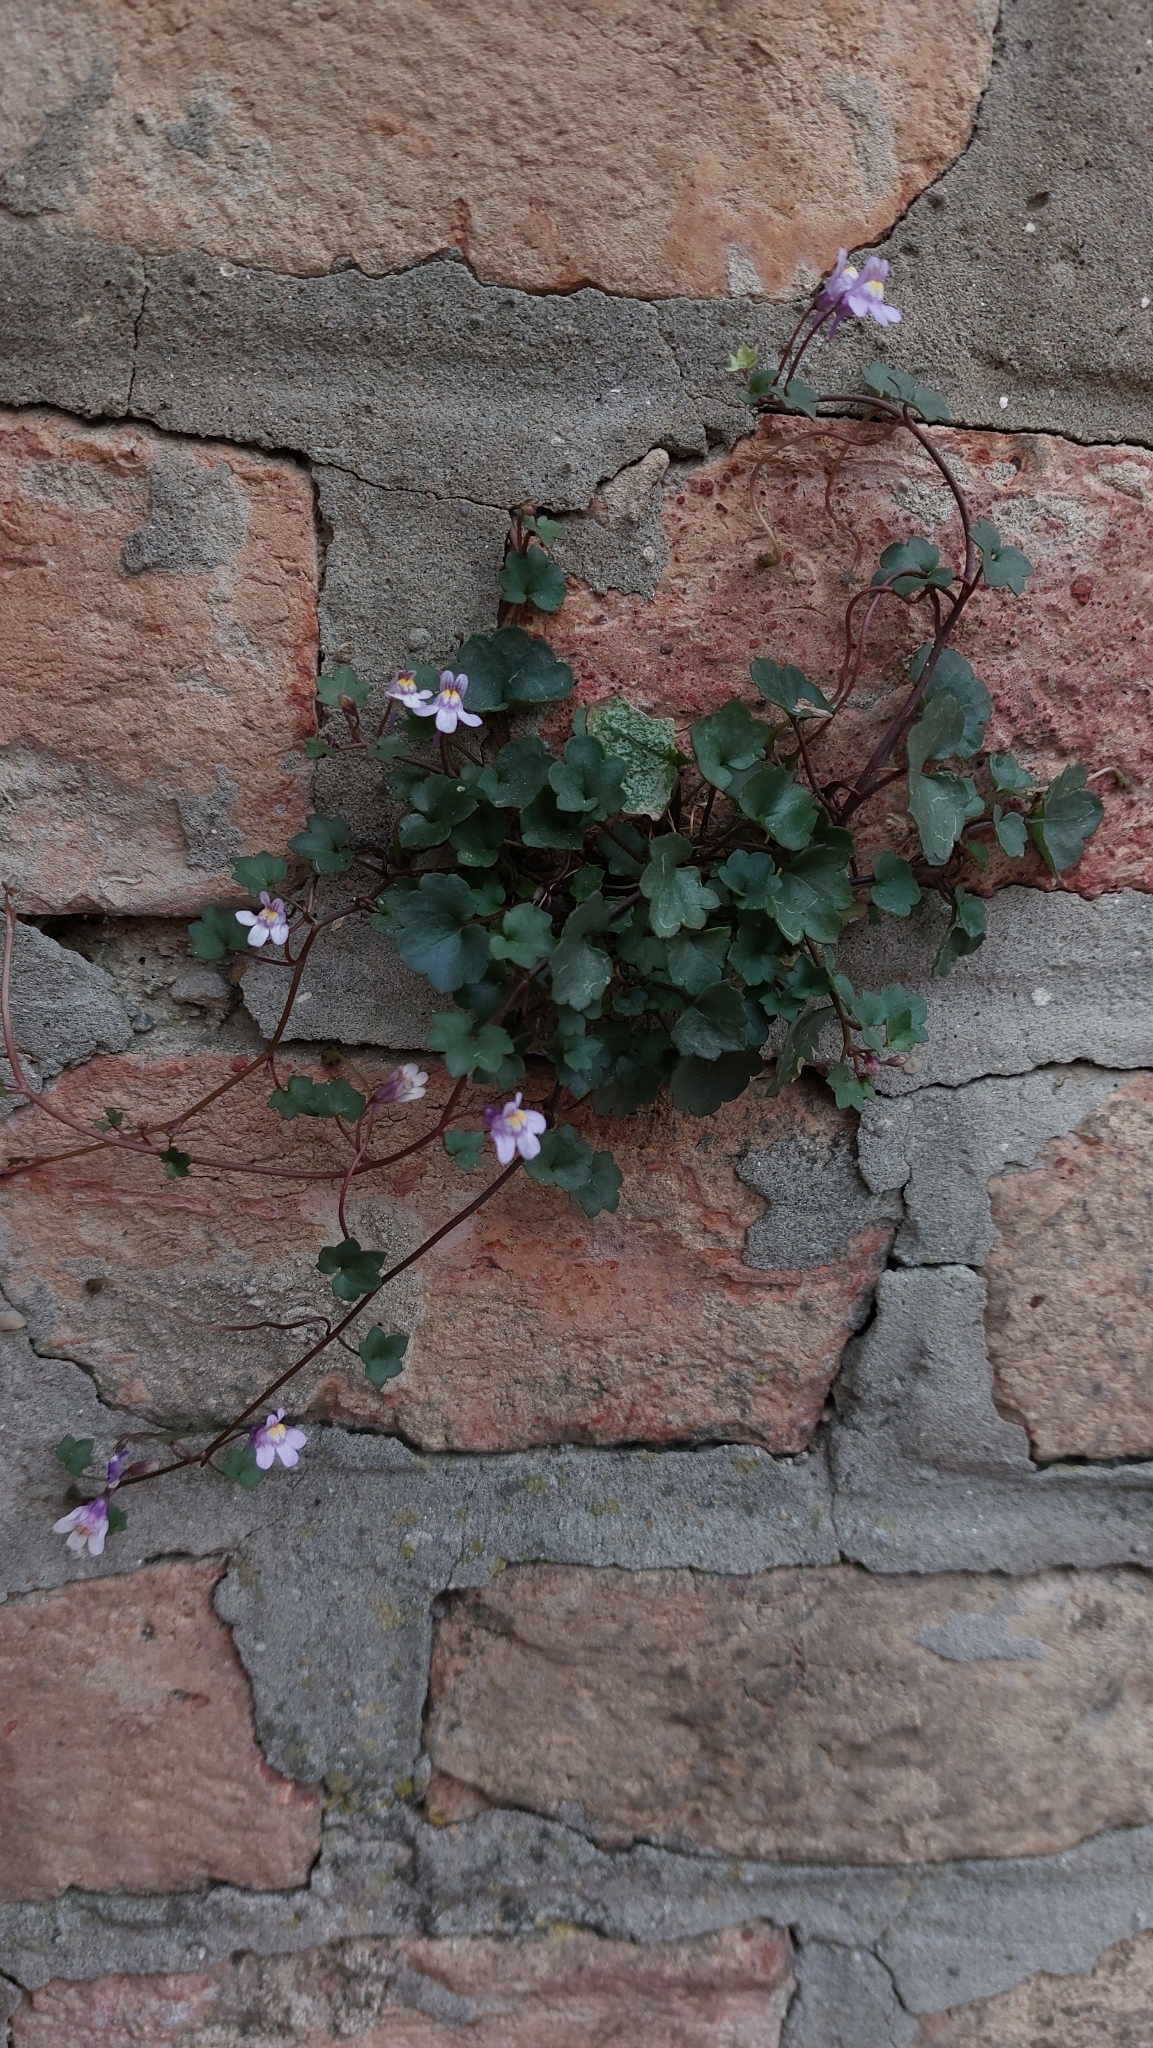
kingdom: Plantae
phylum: Tracheophyta
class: Magnoliopsida
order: Lamiales
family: Plantaginaceae
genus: Cymbalaria
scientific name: Cymbalaria muralis
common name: Ivy-leaved toadflax
